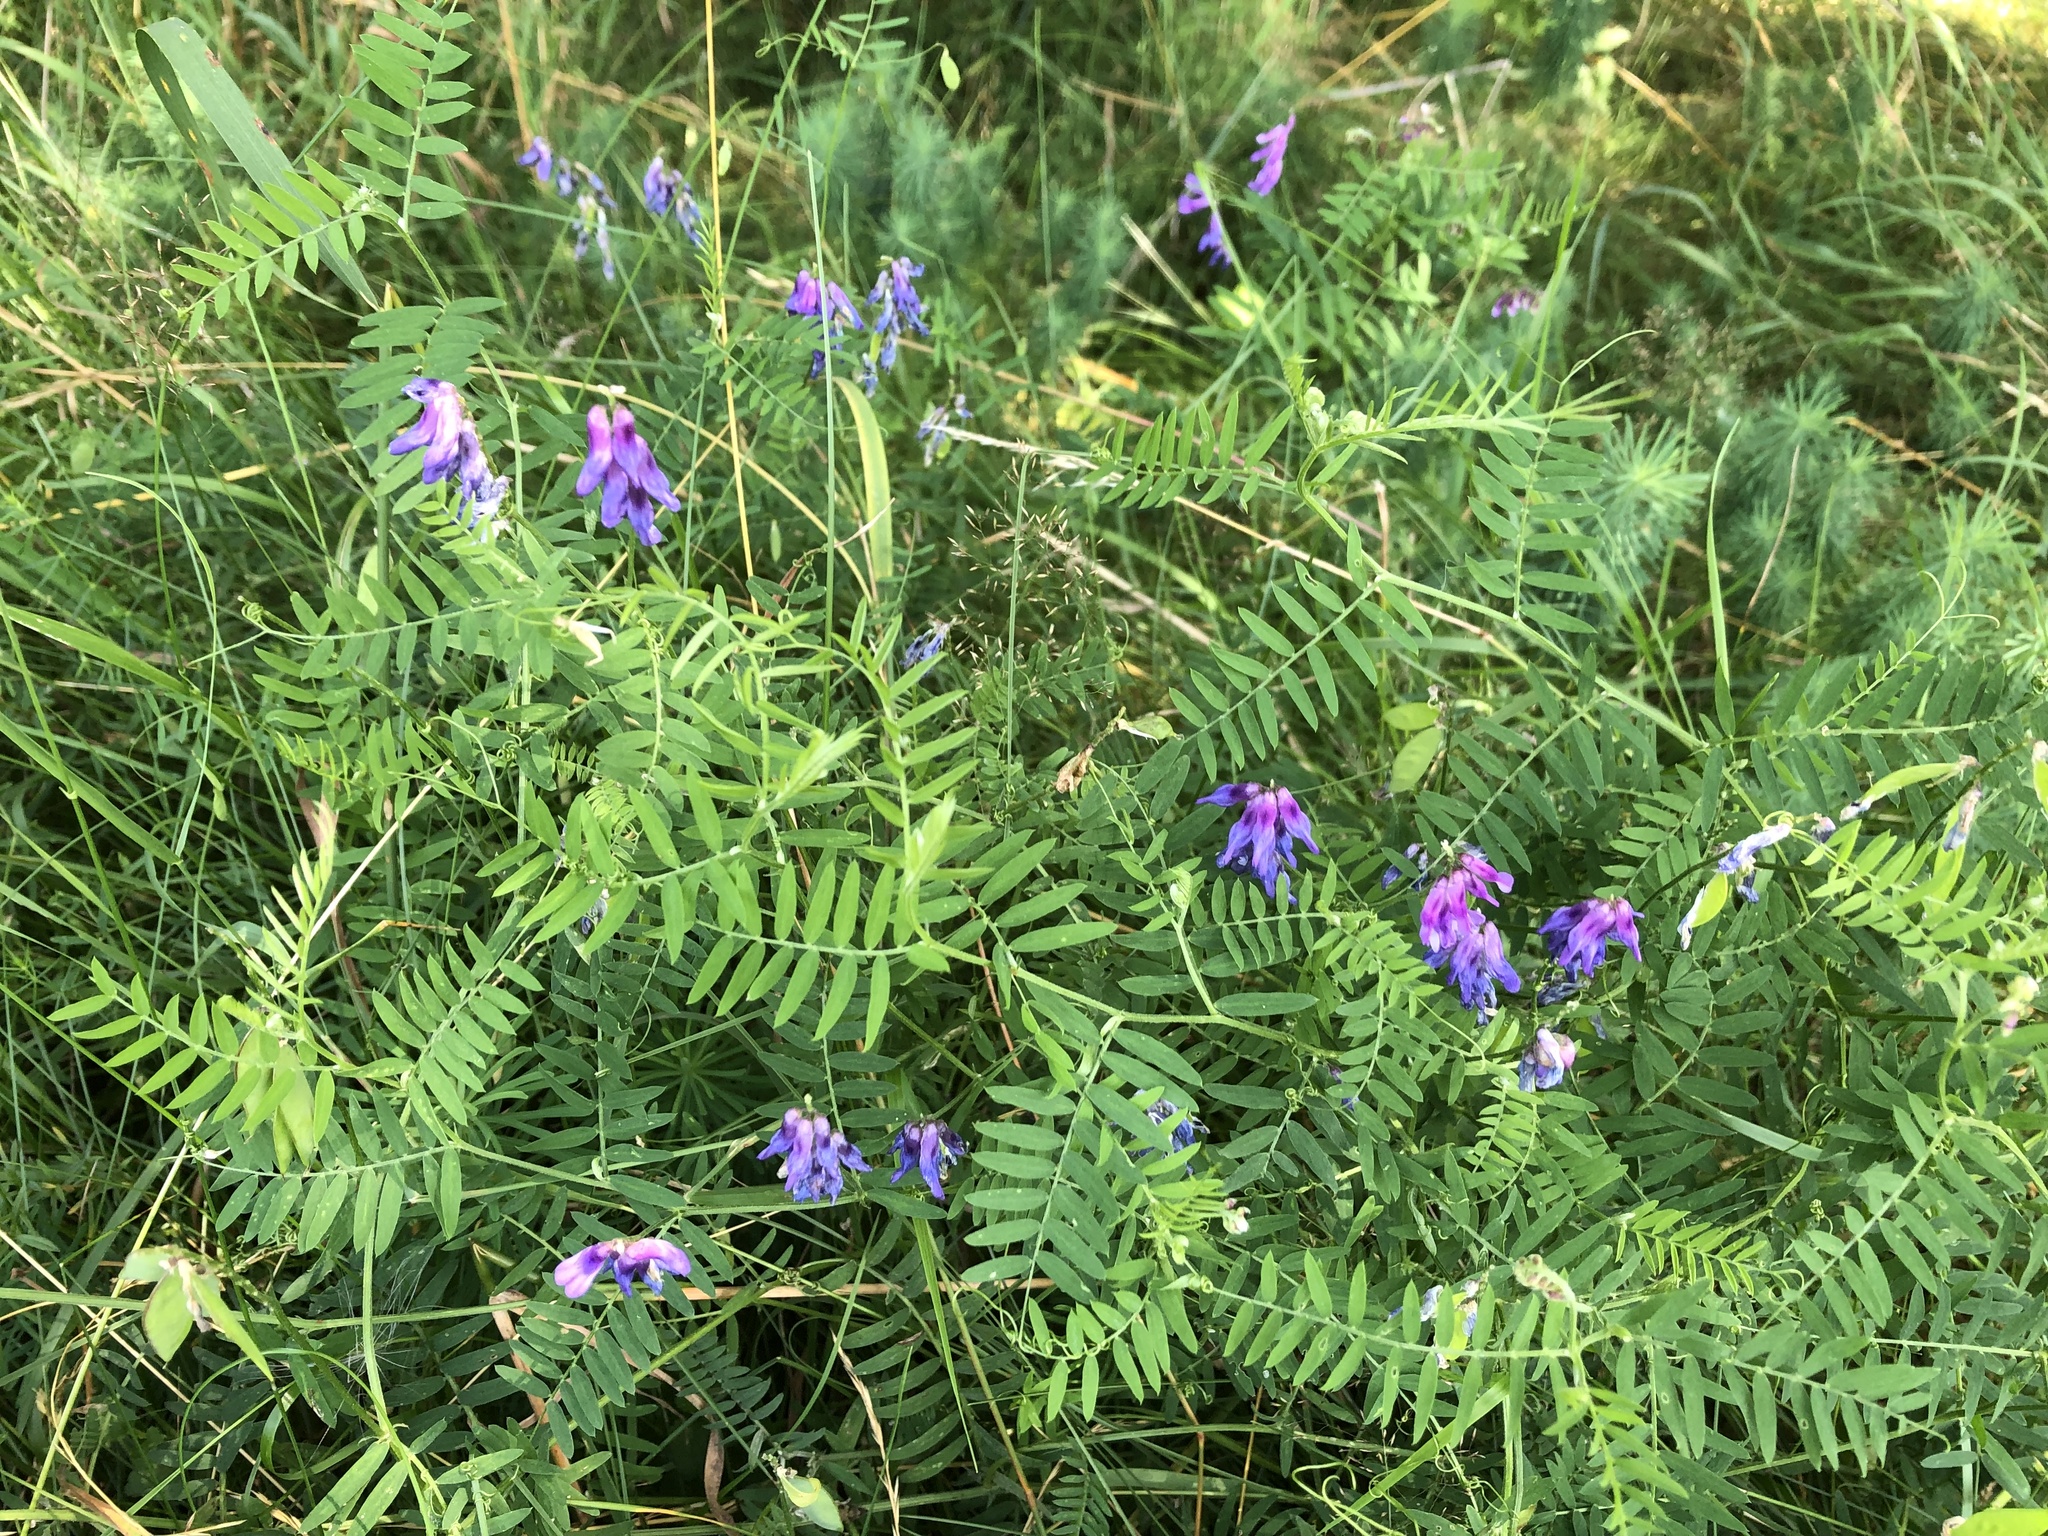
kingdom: Plantae
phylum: Tracheophyta
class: Magnoliopsida
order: Fabales
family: Fabaceae
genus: Vicia
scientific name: Vicia cracca
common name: Bird vetch
